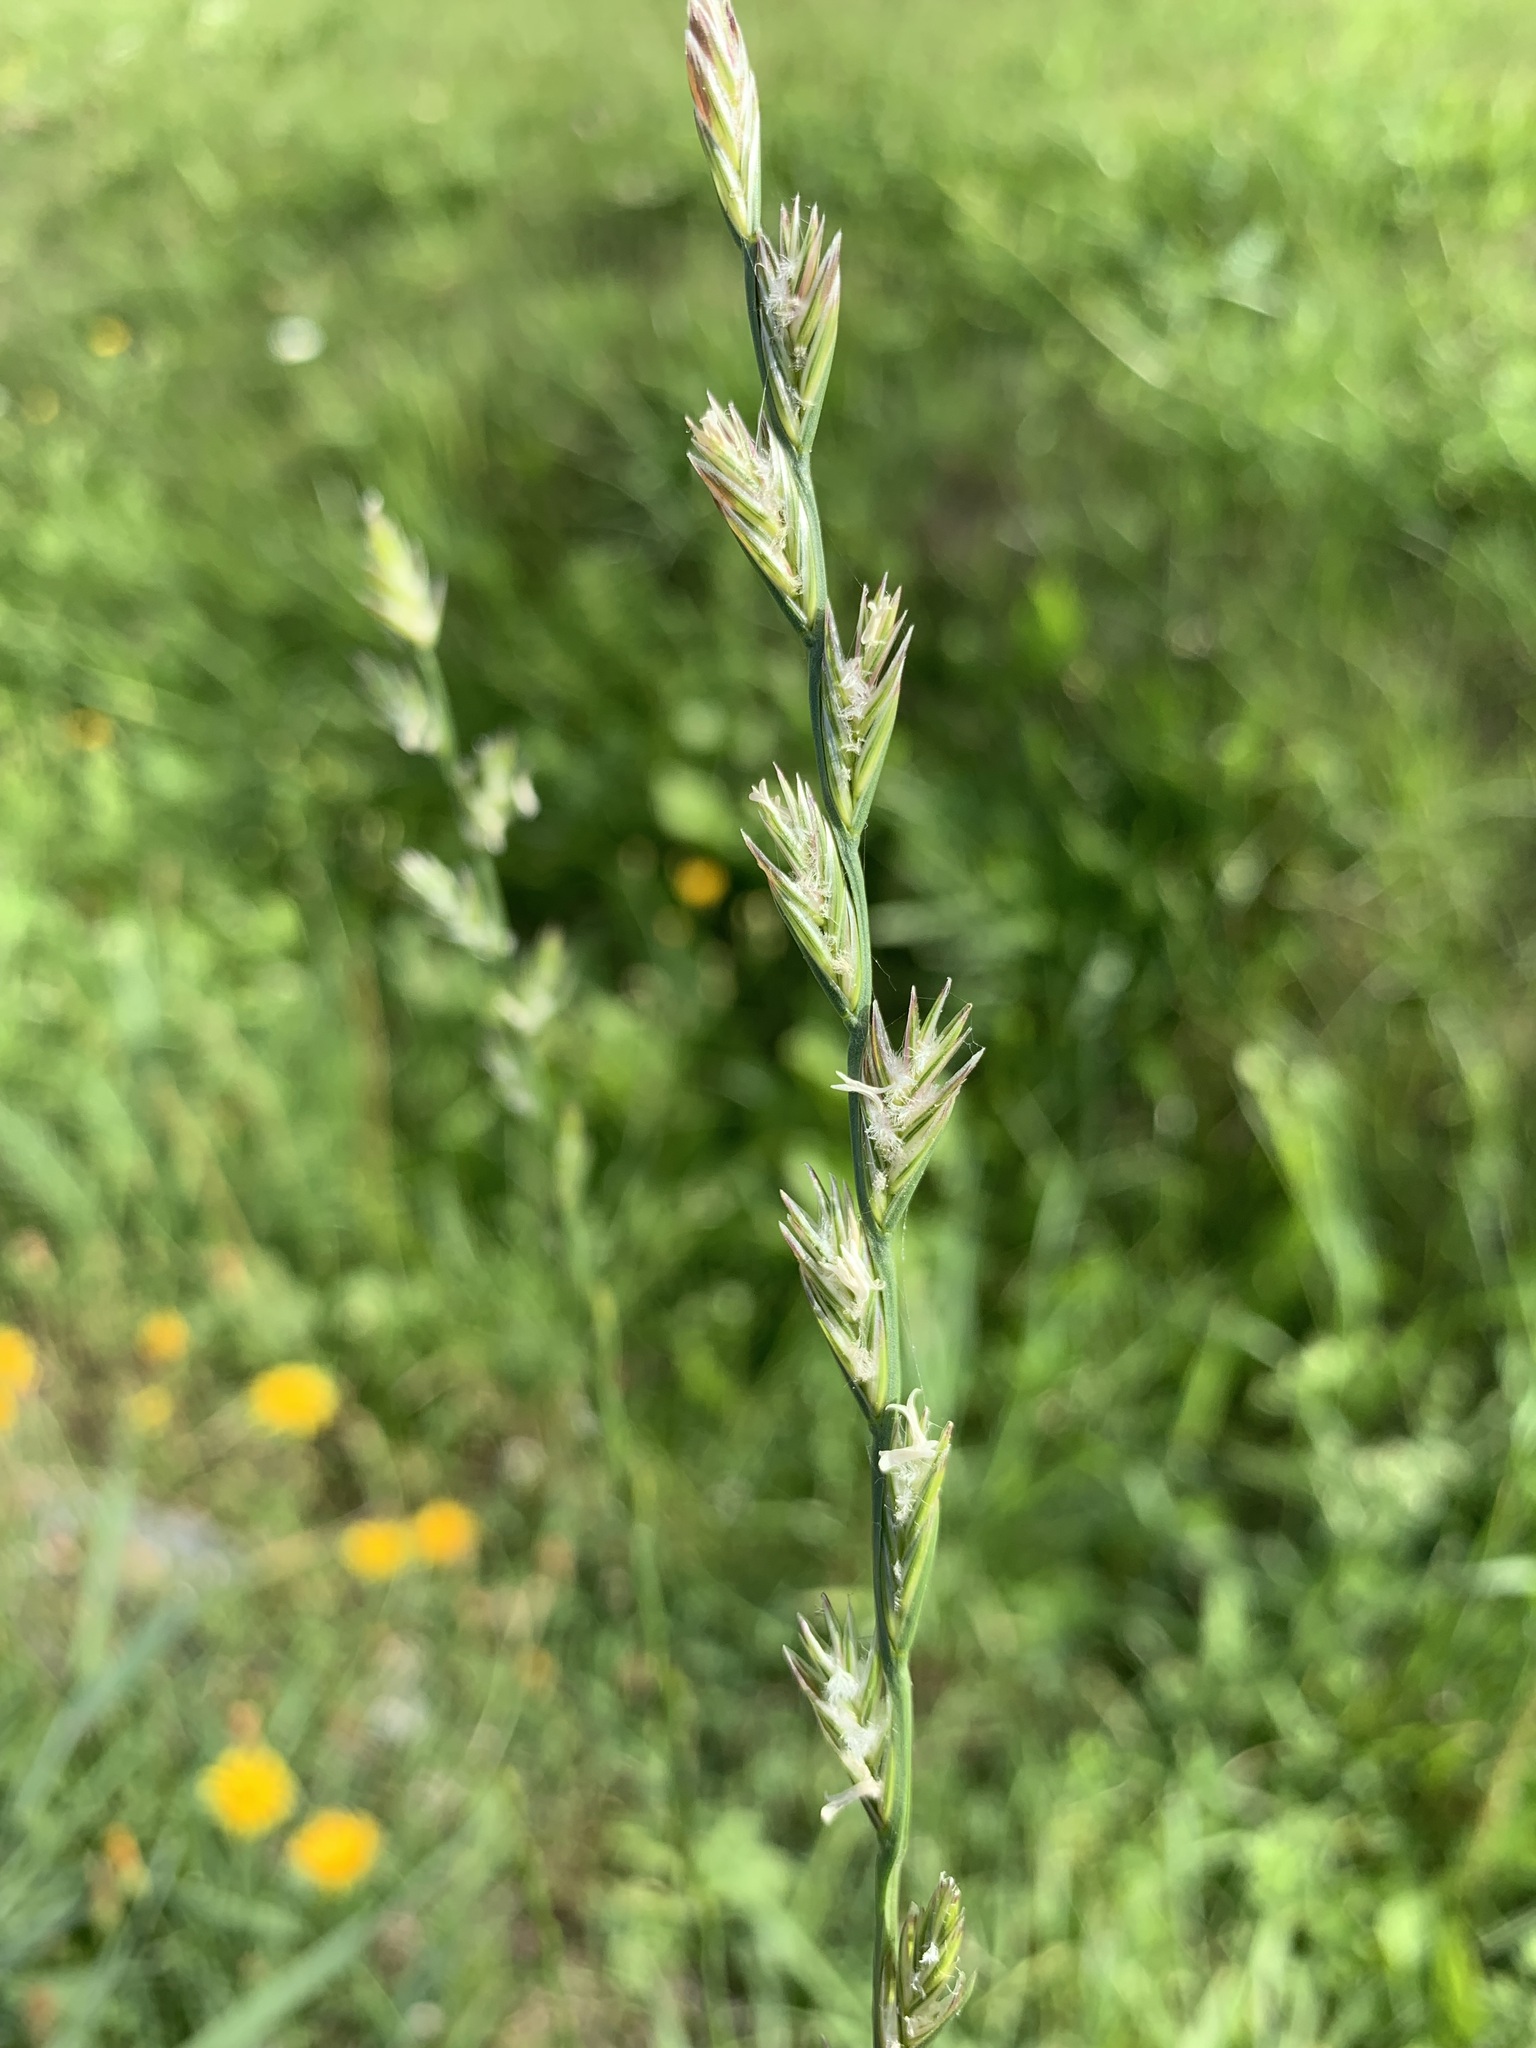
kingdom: Plantae
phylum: Tracheophyta
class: Liliopsida
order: Poales
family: Poaceae
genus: Lolium
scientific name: Lolium perenne
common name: Perennial ryegrass
